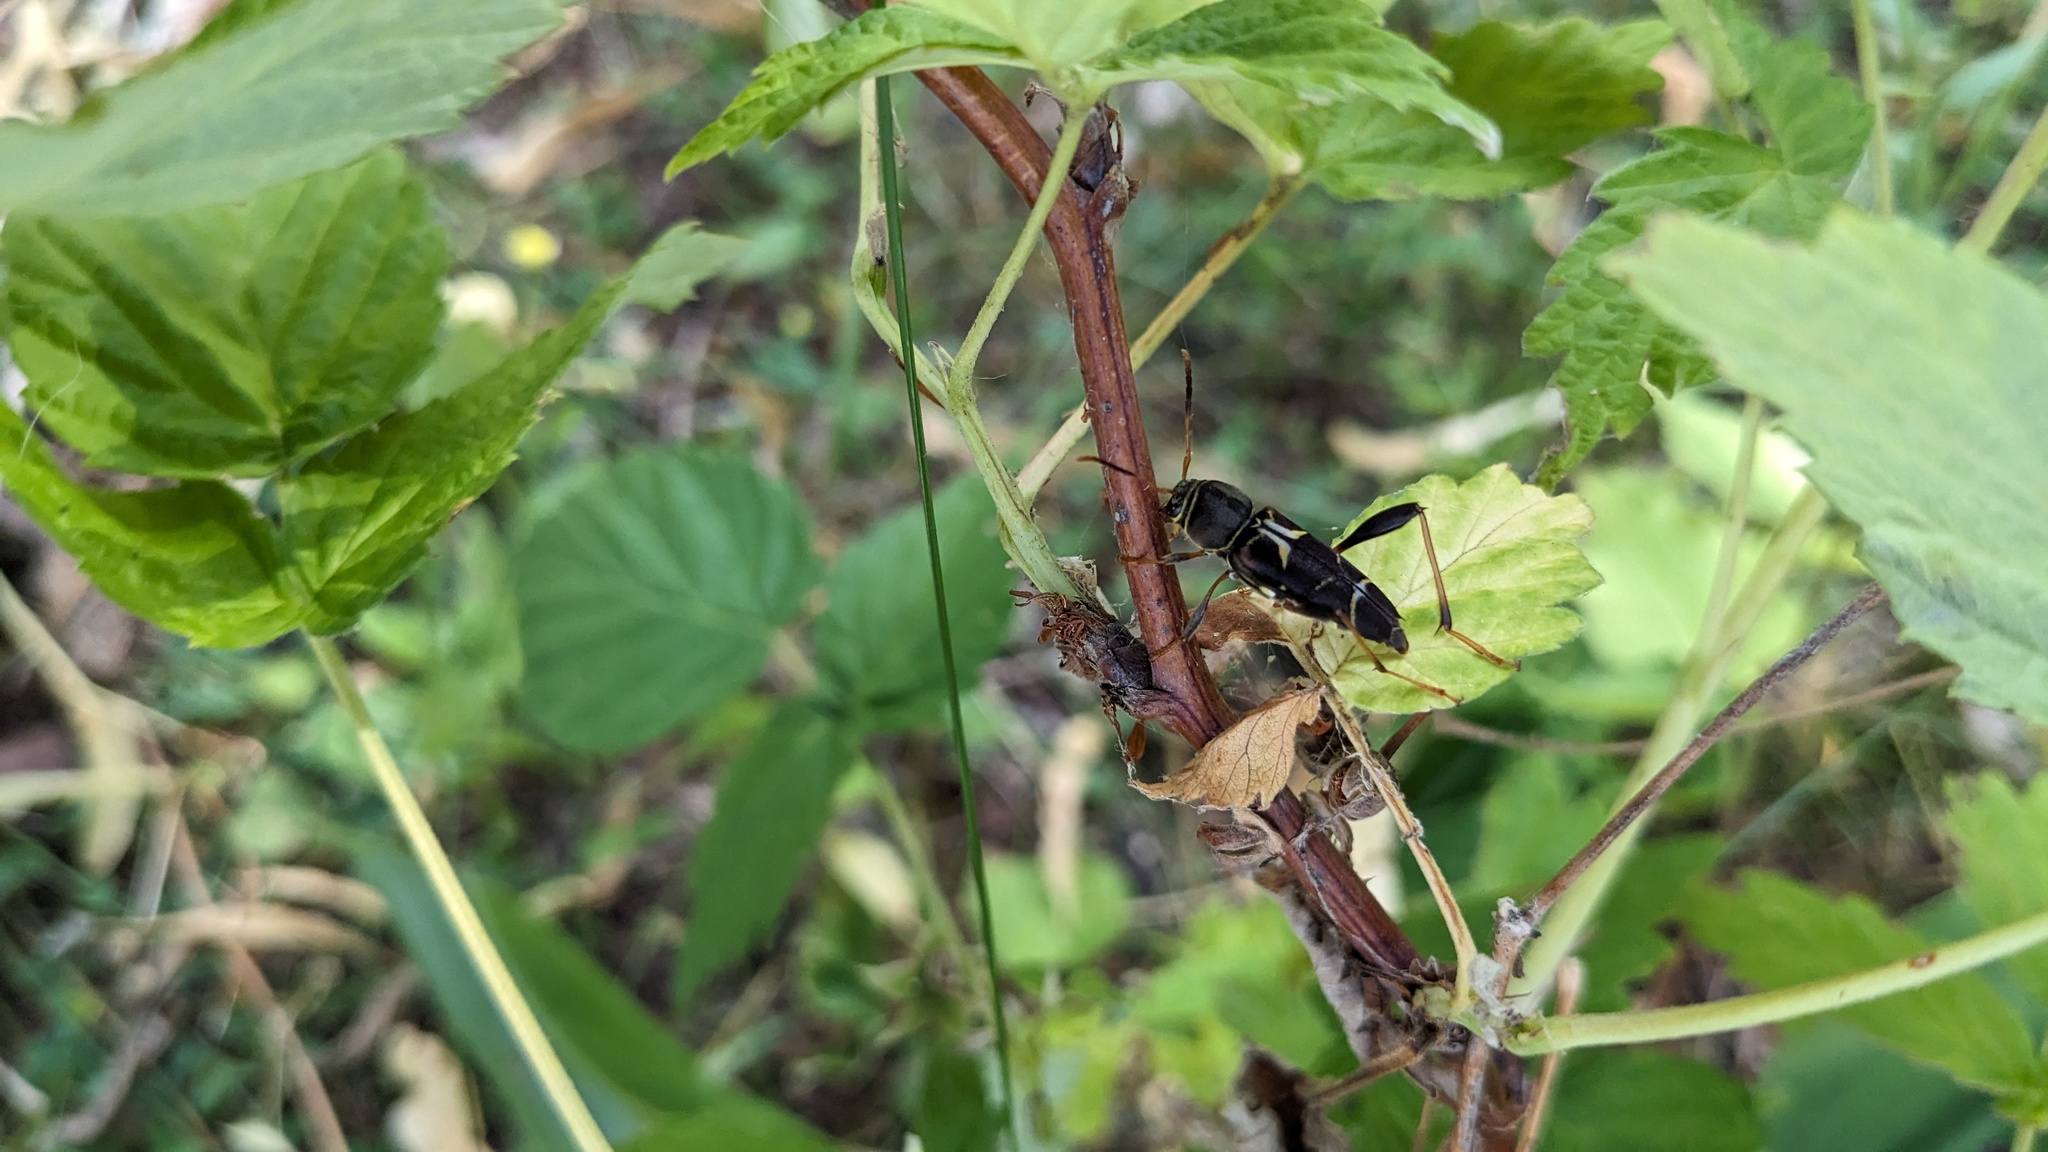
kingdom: Animalia
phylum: Arthropoda
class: Insecta
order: Coleoptera
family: Cerambycidae
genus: Neoclytus
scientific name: Neoclytus mucronatus
